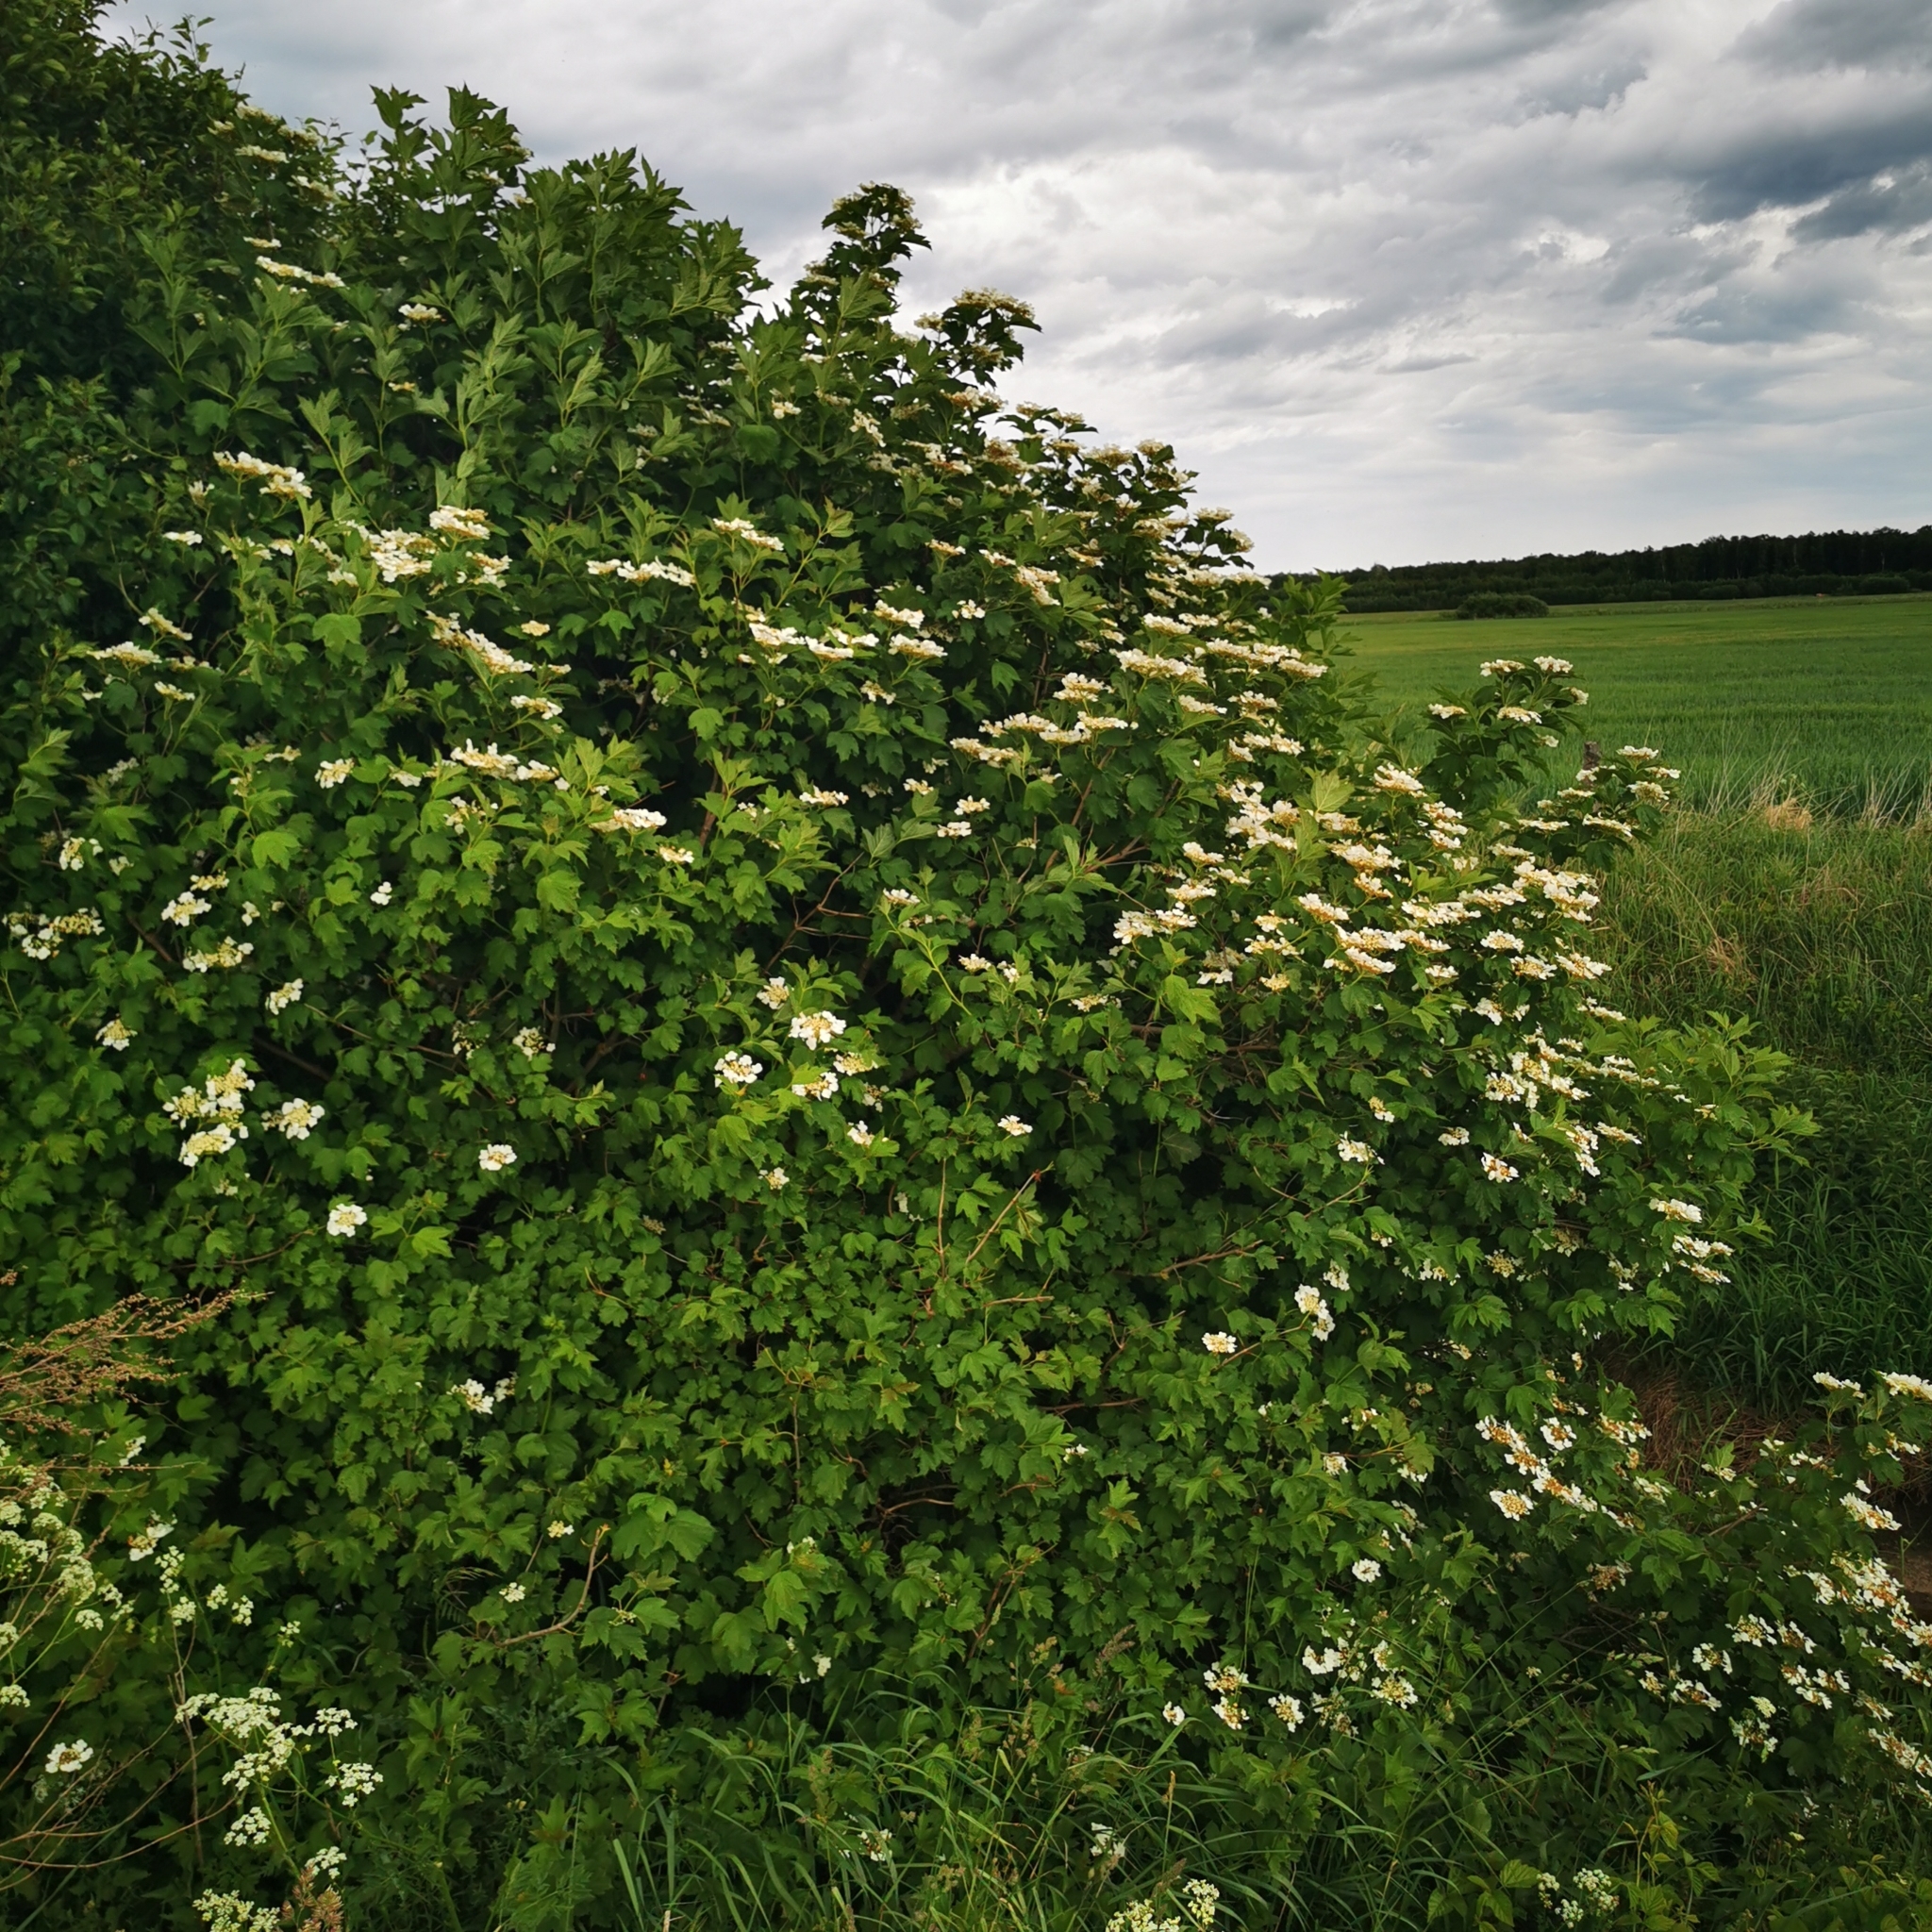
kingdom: Plantae
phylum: Tracheophyta
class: Magnoliopsida
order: Dipsacales
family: Viburnaceae
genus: Viburnum
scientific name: Viburnum opulus
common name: Guelder-rose
